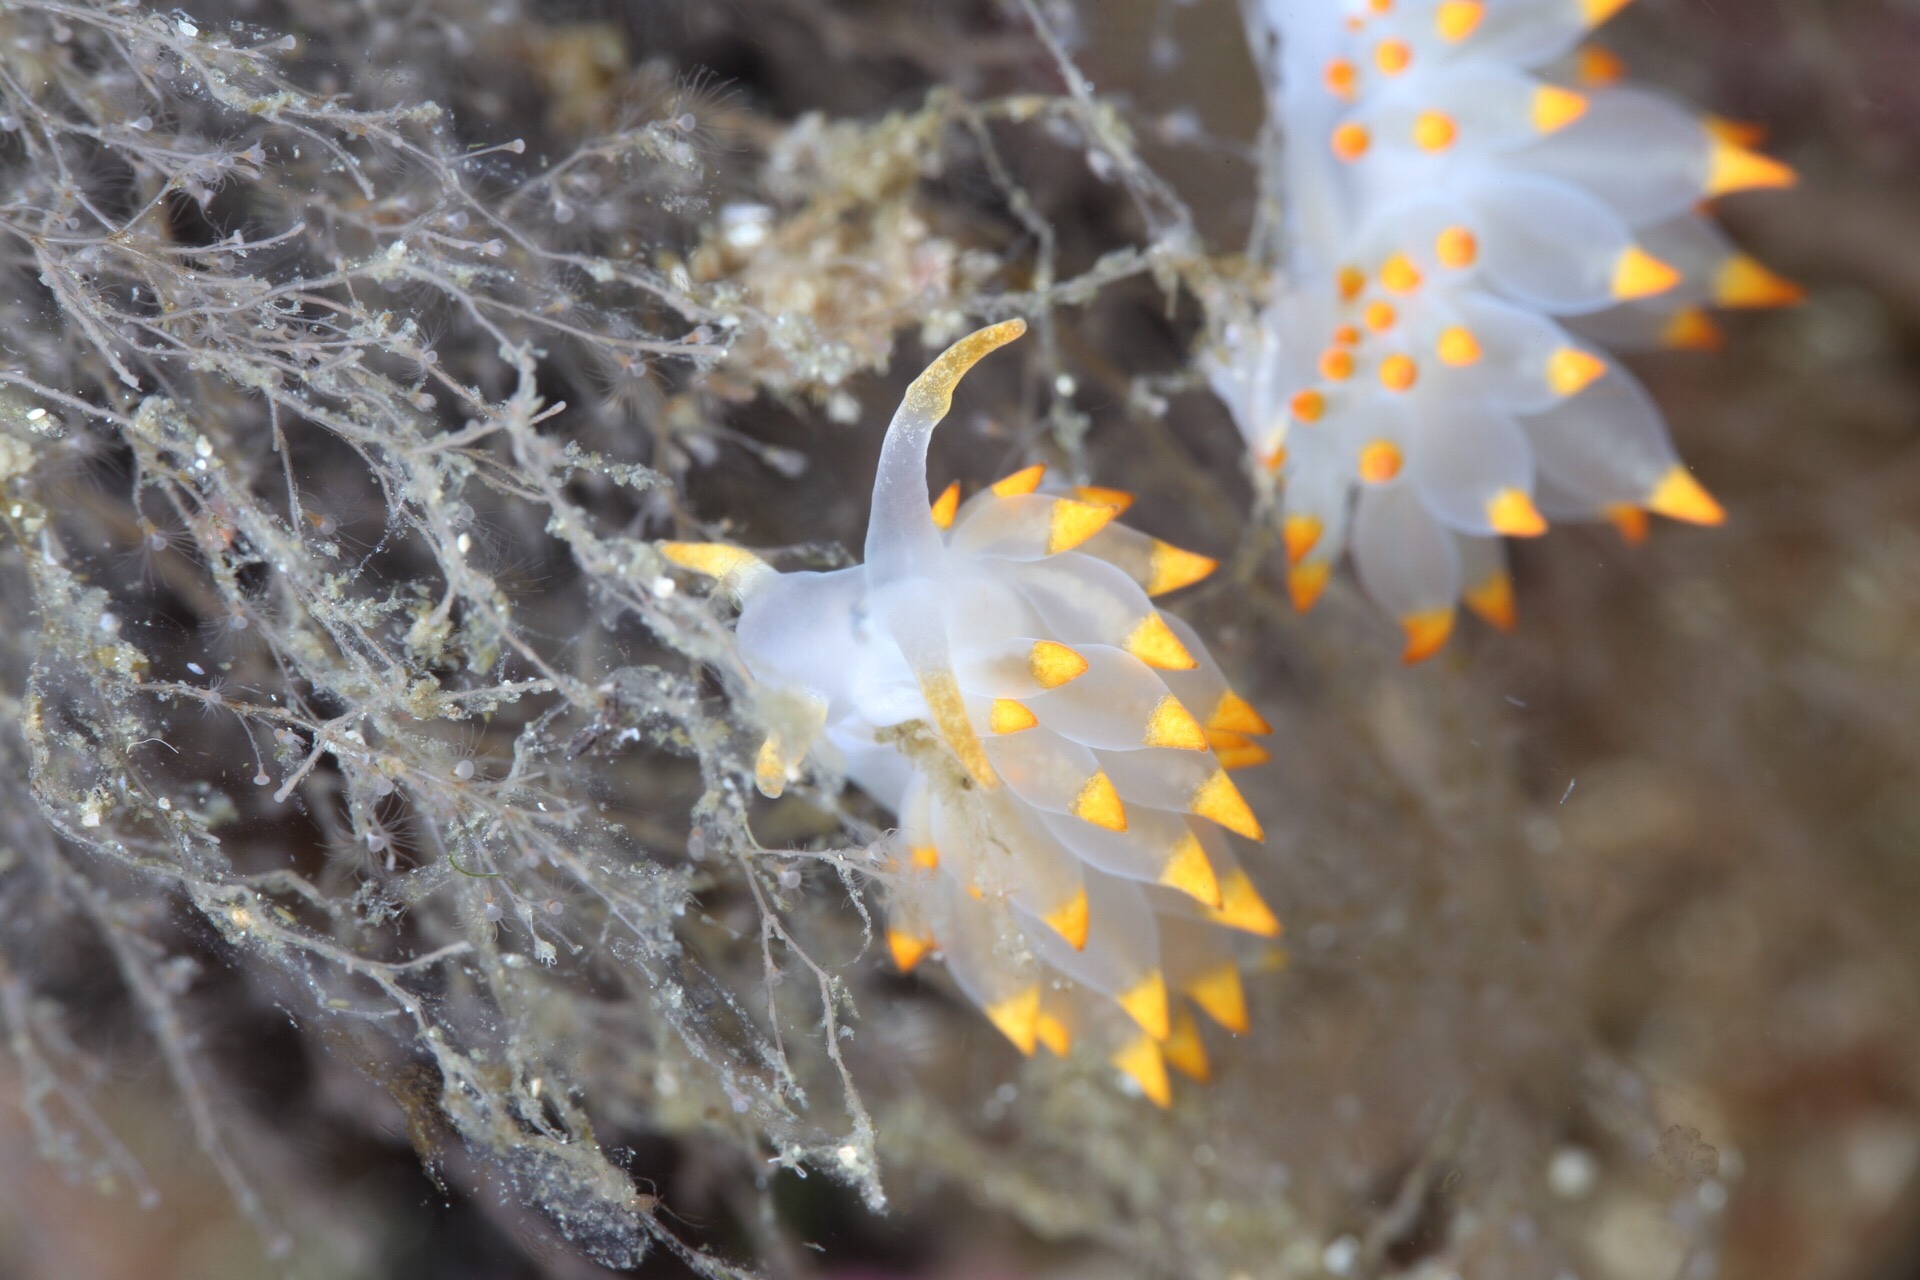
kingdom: Animalia
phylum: Mollusca
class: Gastropoda
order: Nudibranchia
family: Eubranchidae
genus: Amphorina
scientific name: Amphorina farrani
